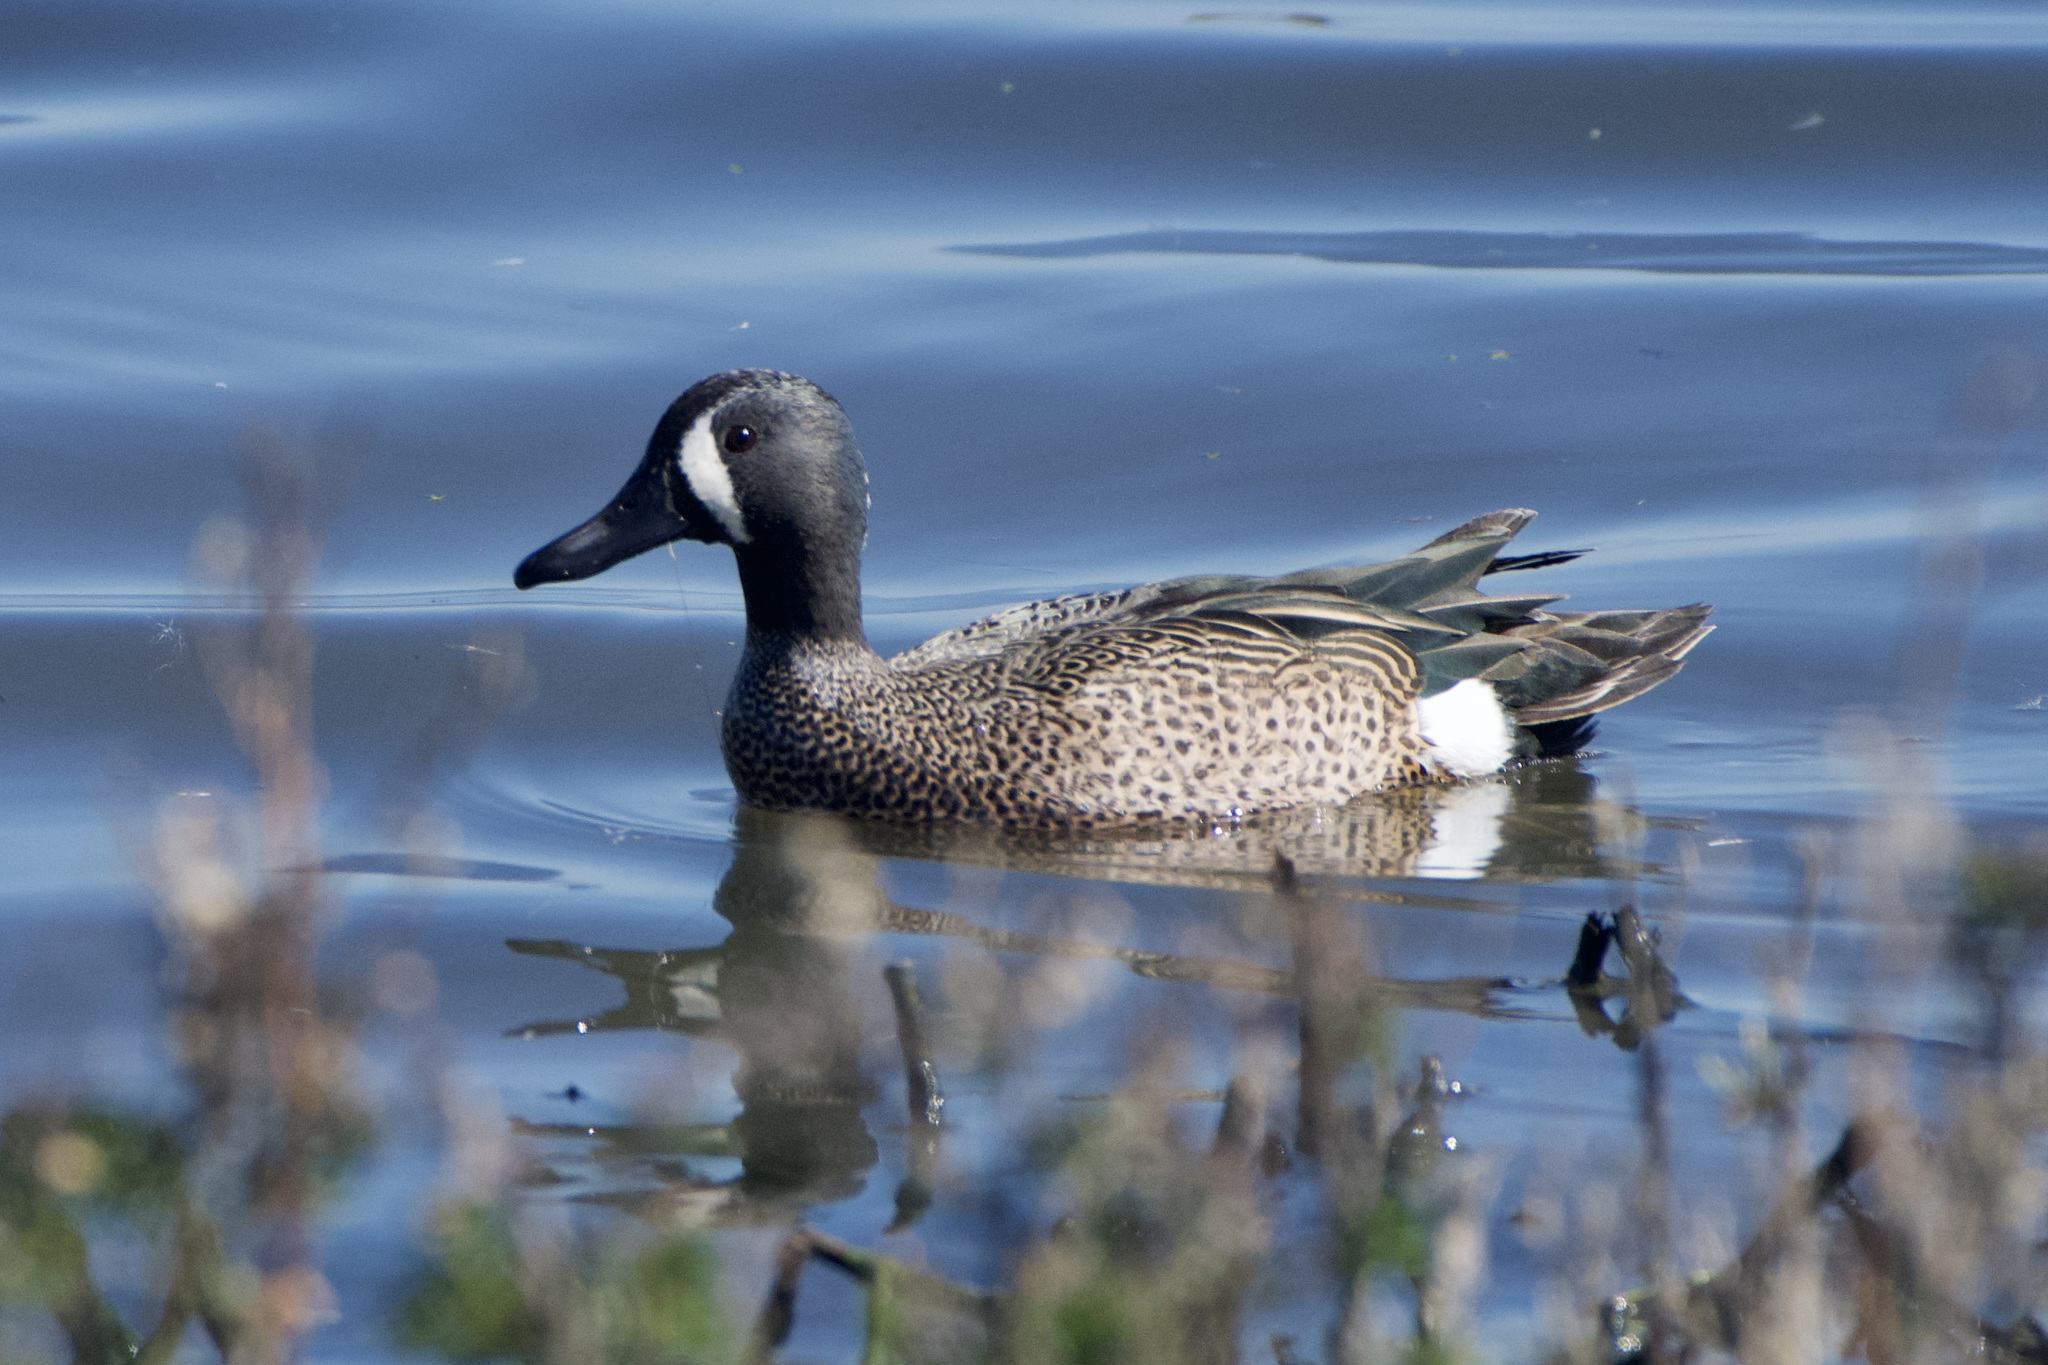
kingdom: Animalia
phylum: Chordata
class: Aves
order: Anseriformes
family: Anatidae
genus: Spatula
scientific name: Spatula discors
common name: Blue-winged teal
